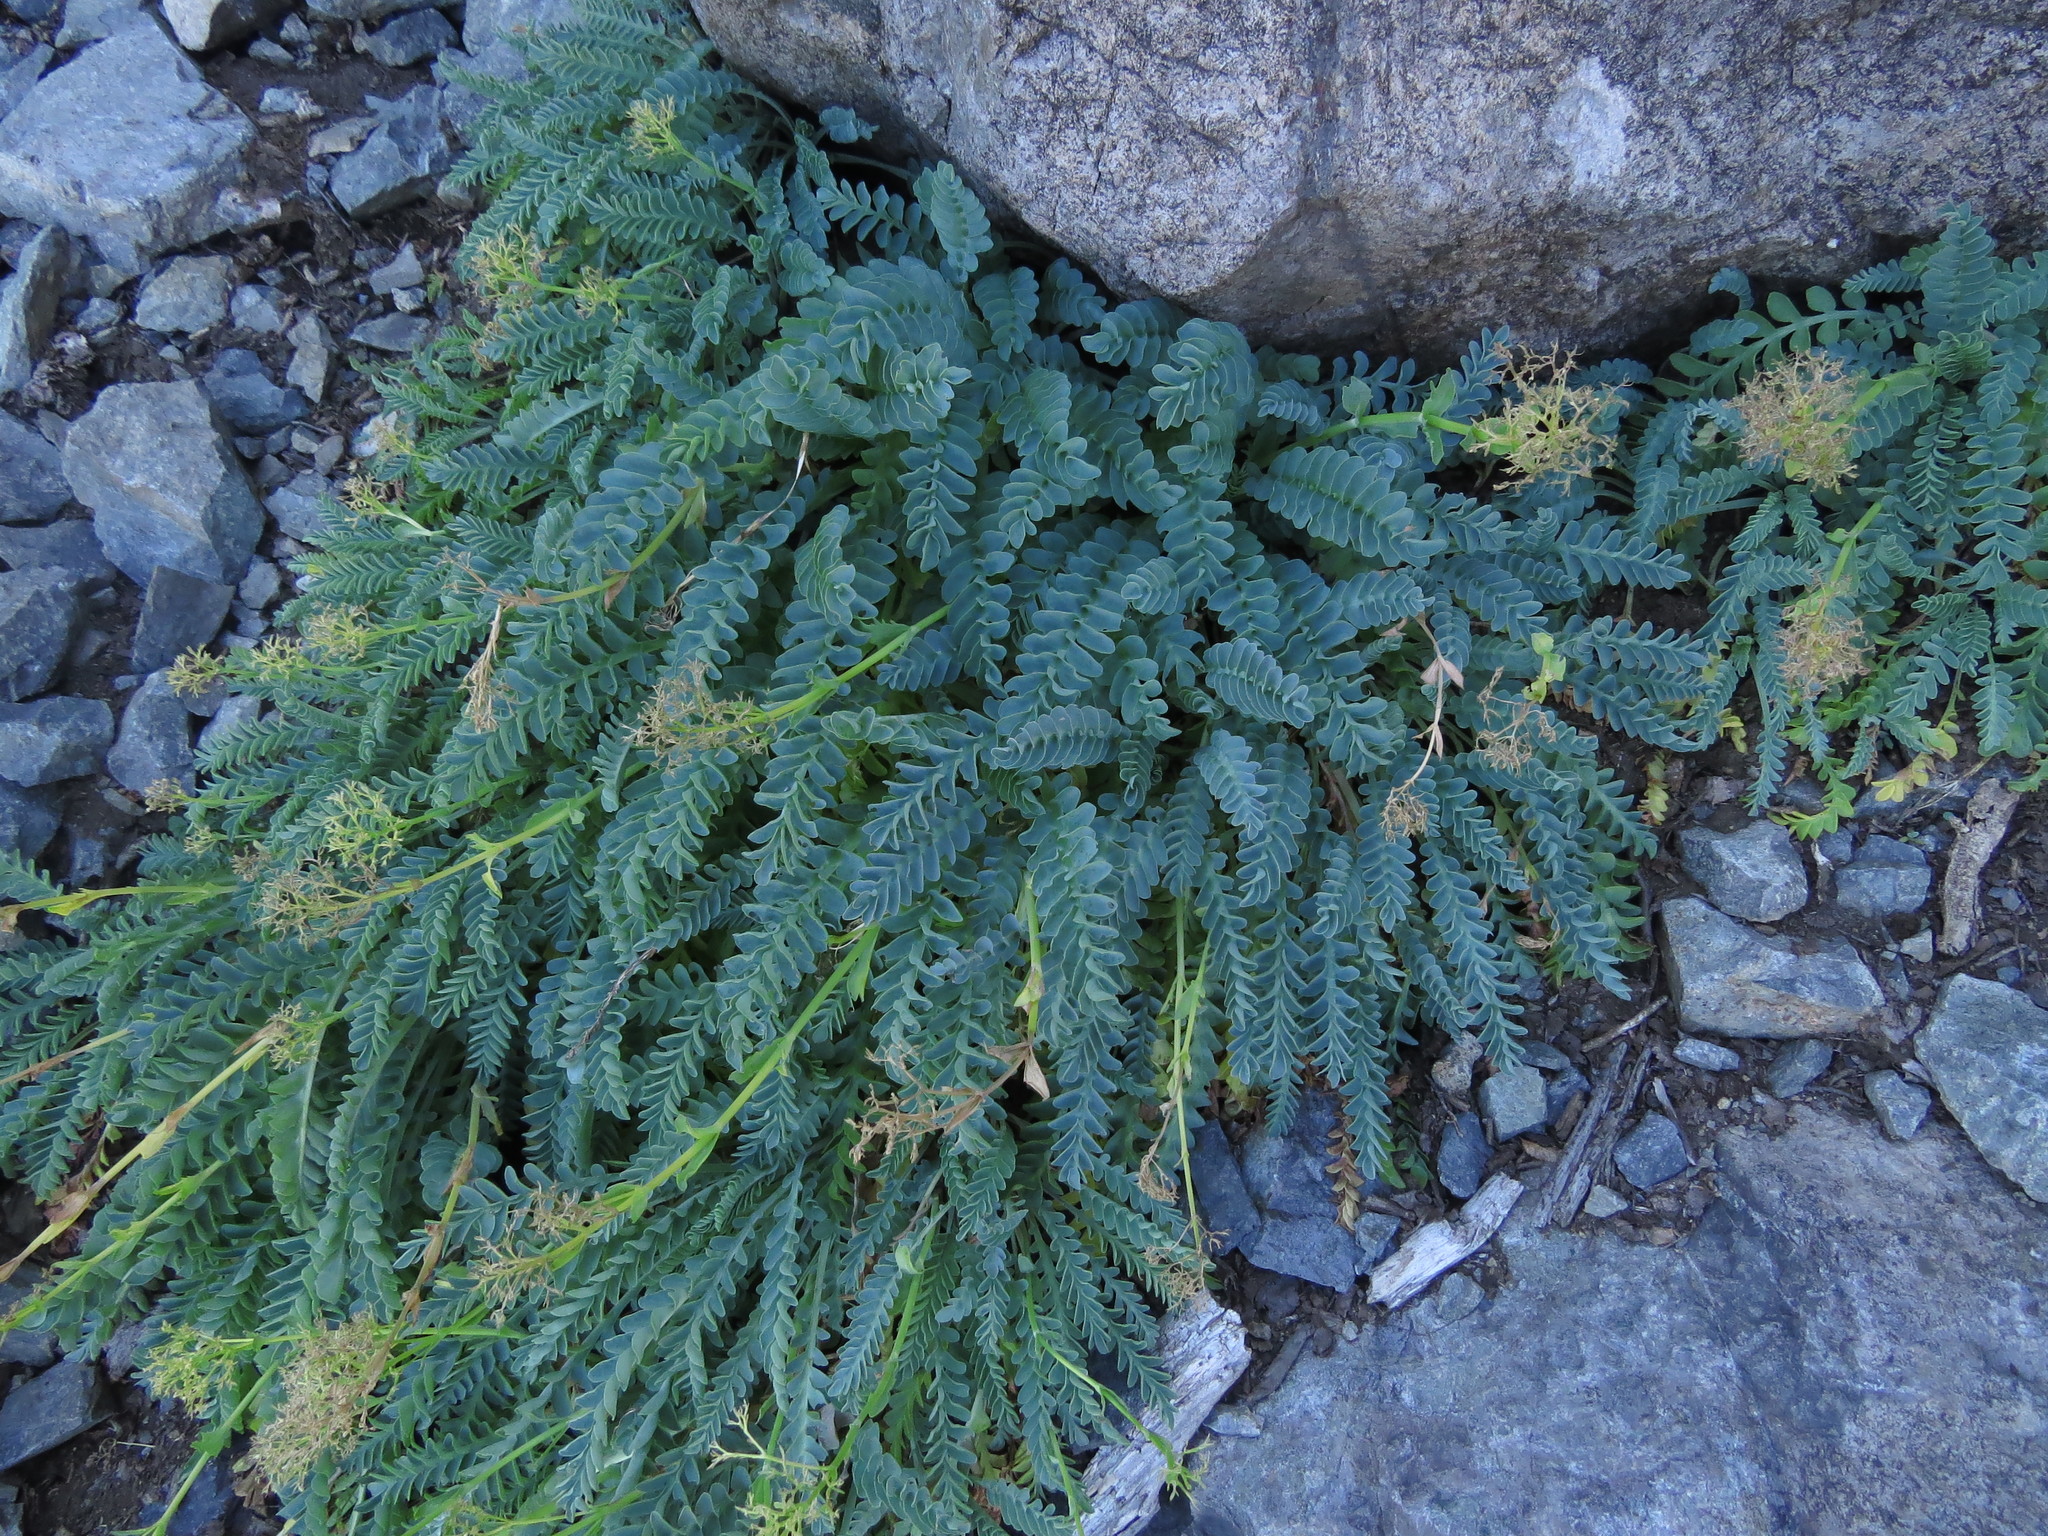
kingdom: Plantae
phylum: Tracheophyta
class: Magnoliopsida
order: Dipsacales
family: Caprifoliaceae
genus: Valeriana
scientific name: Valeriana praecipitis
